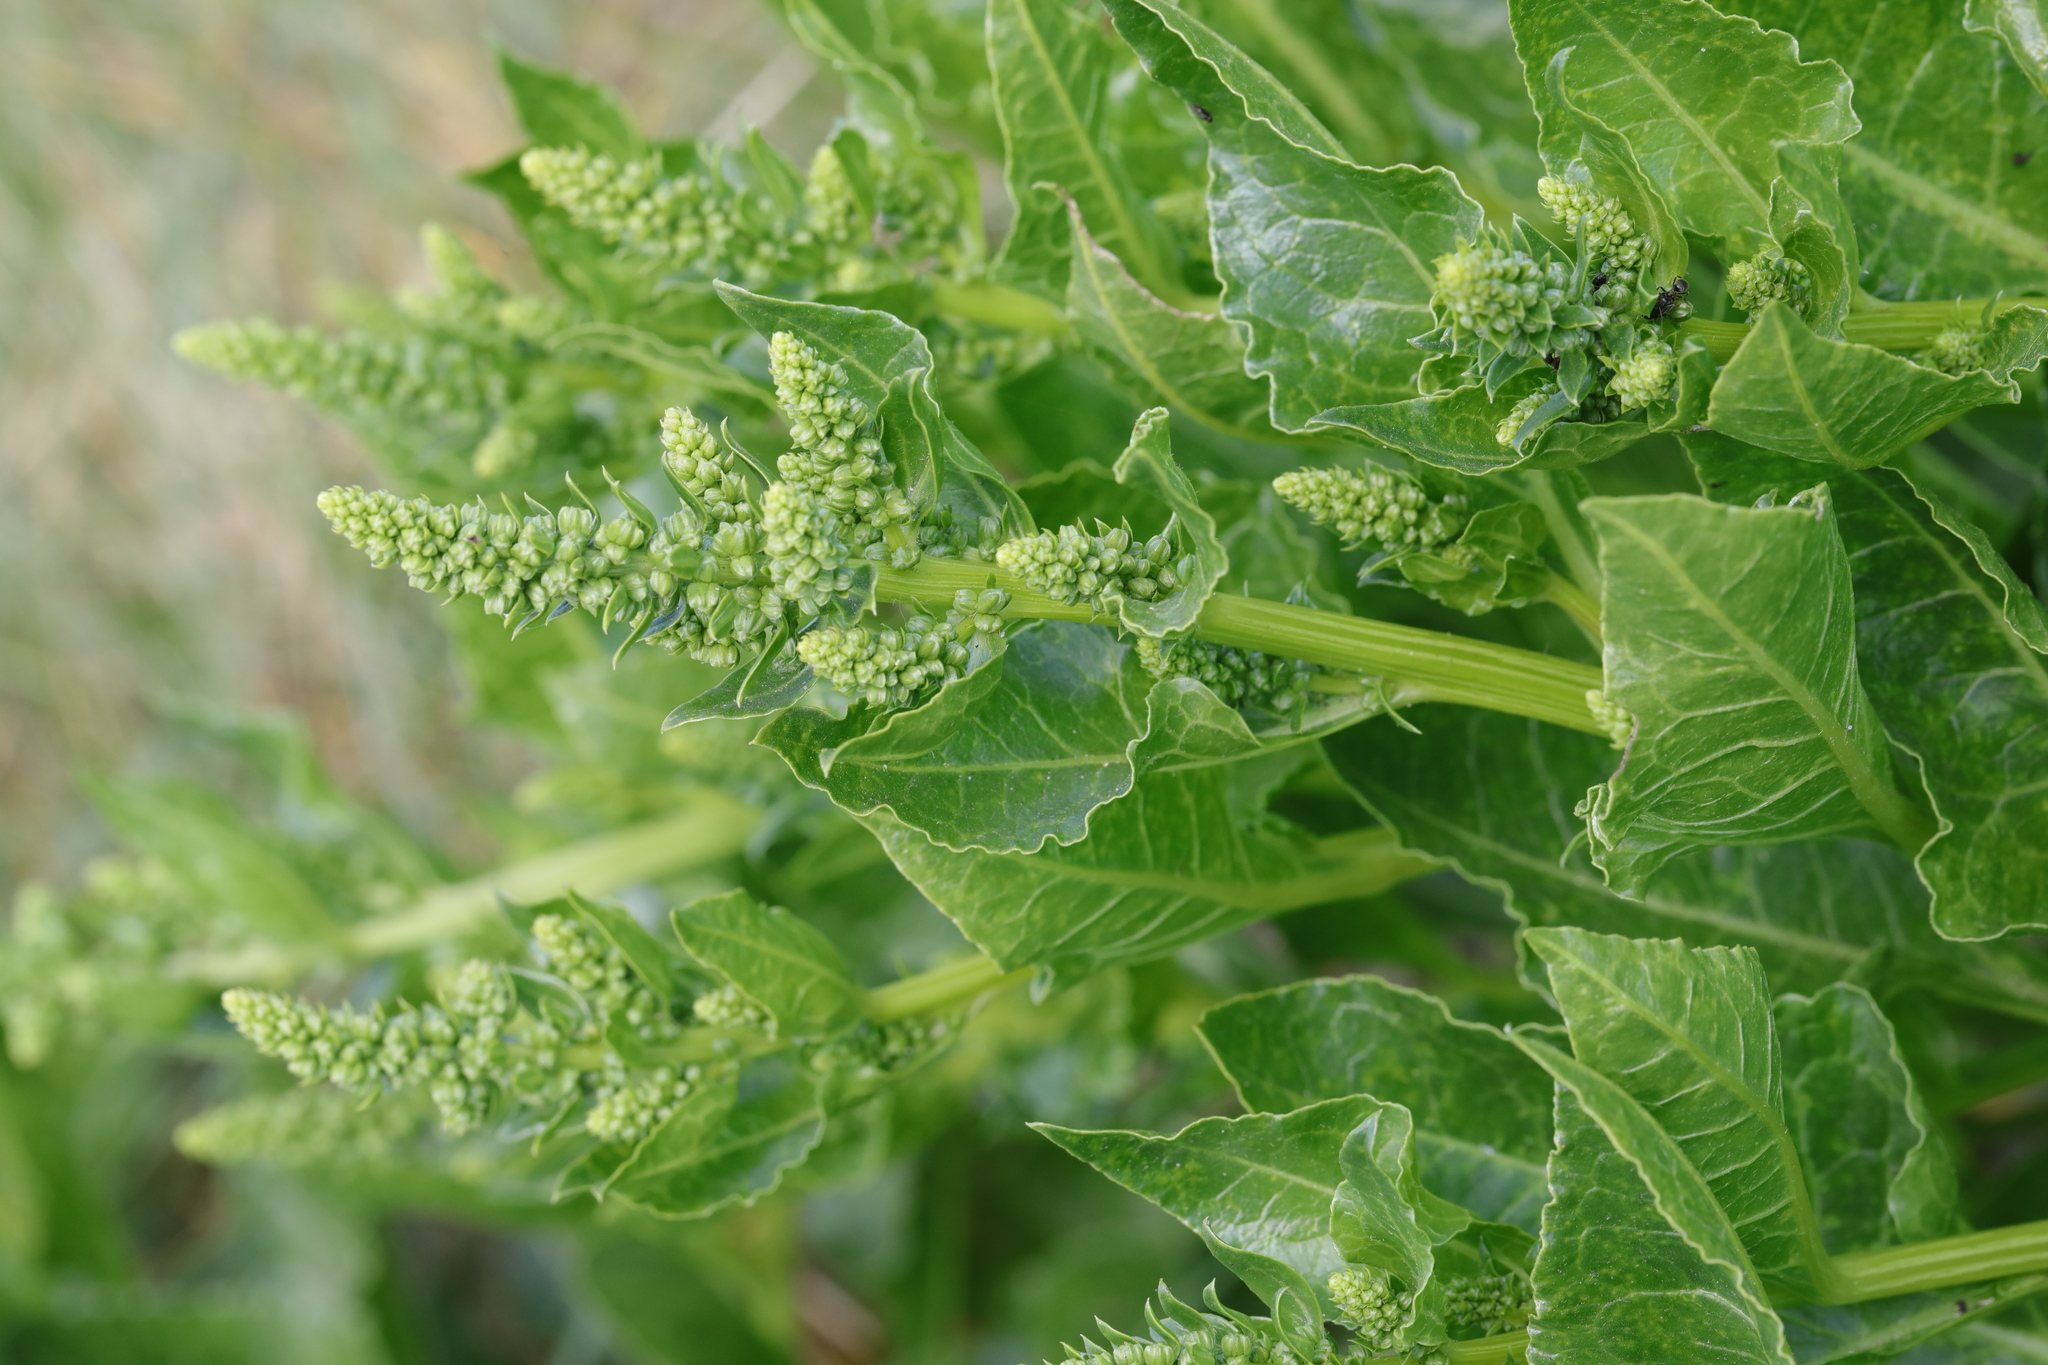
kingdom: Plantae
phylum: Tracheophyta
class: Magnoliopsida
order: Caryophyllales
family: Amaranthaceae
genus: Beta
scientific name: Beta vulgaris
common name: Beet
